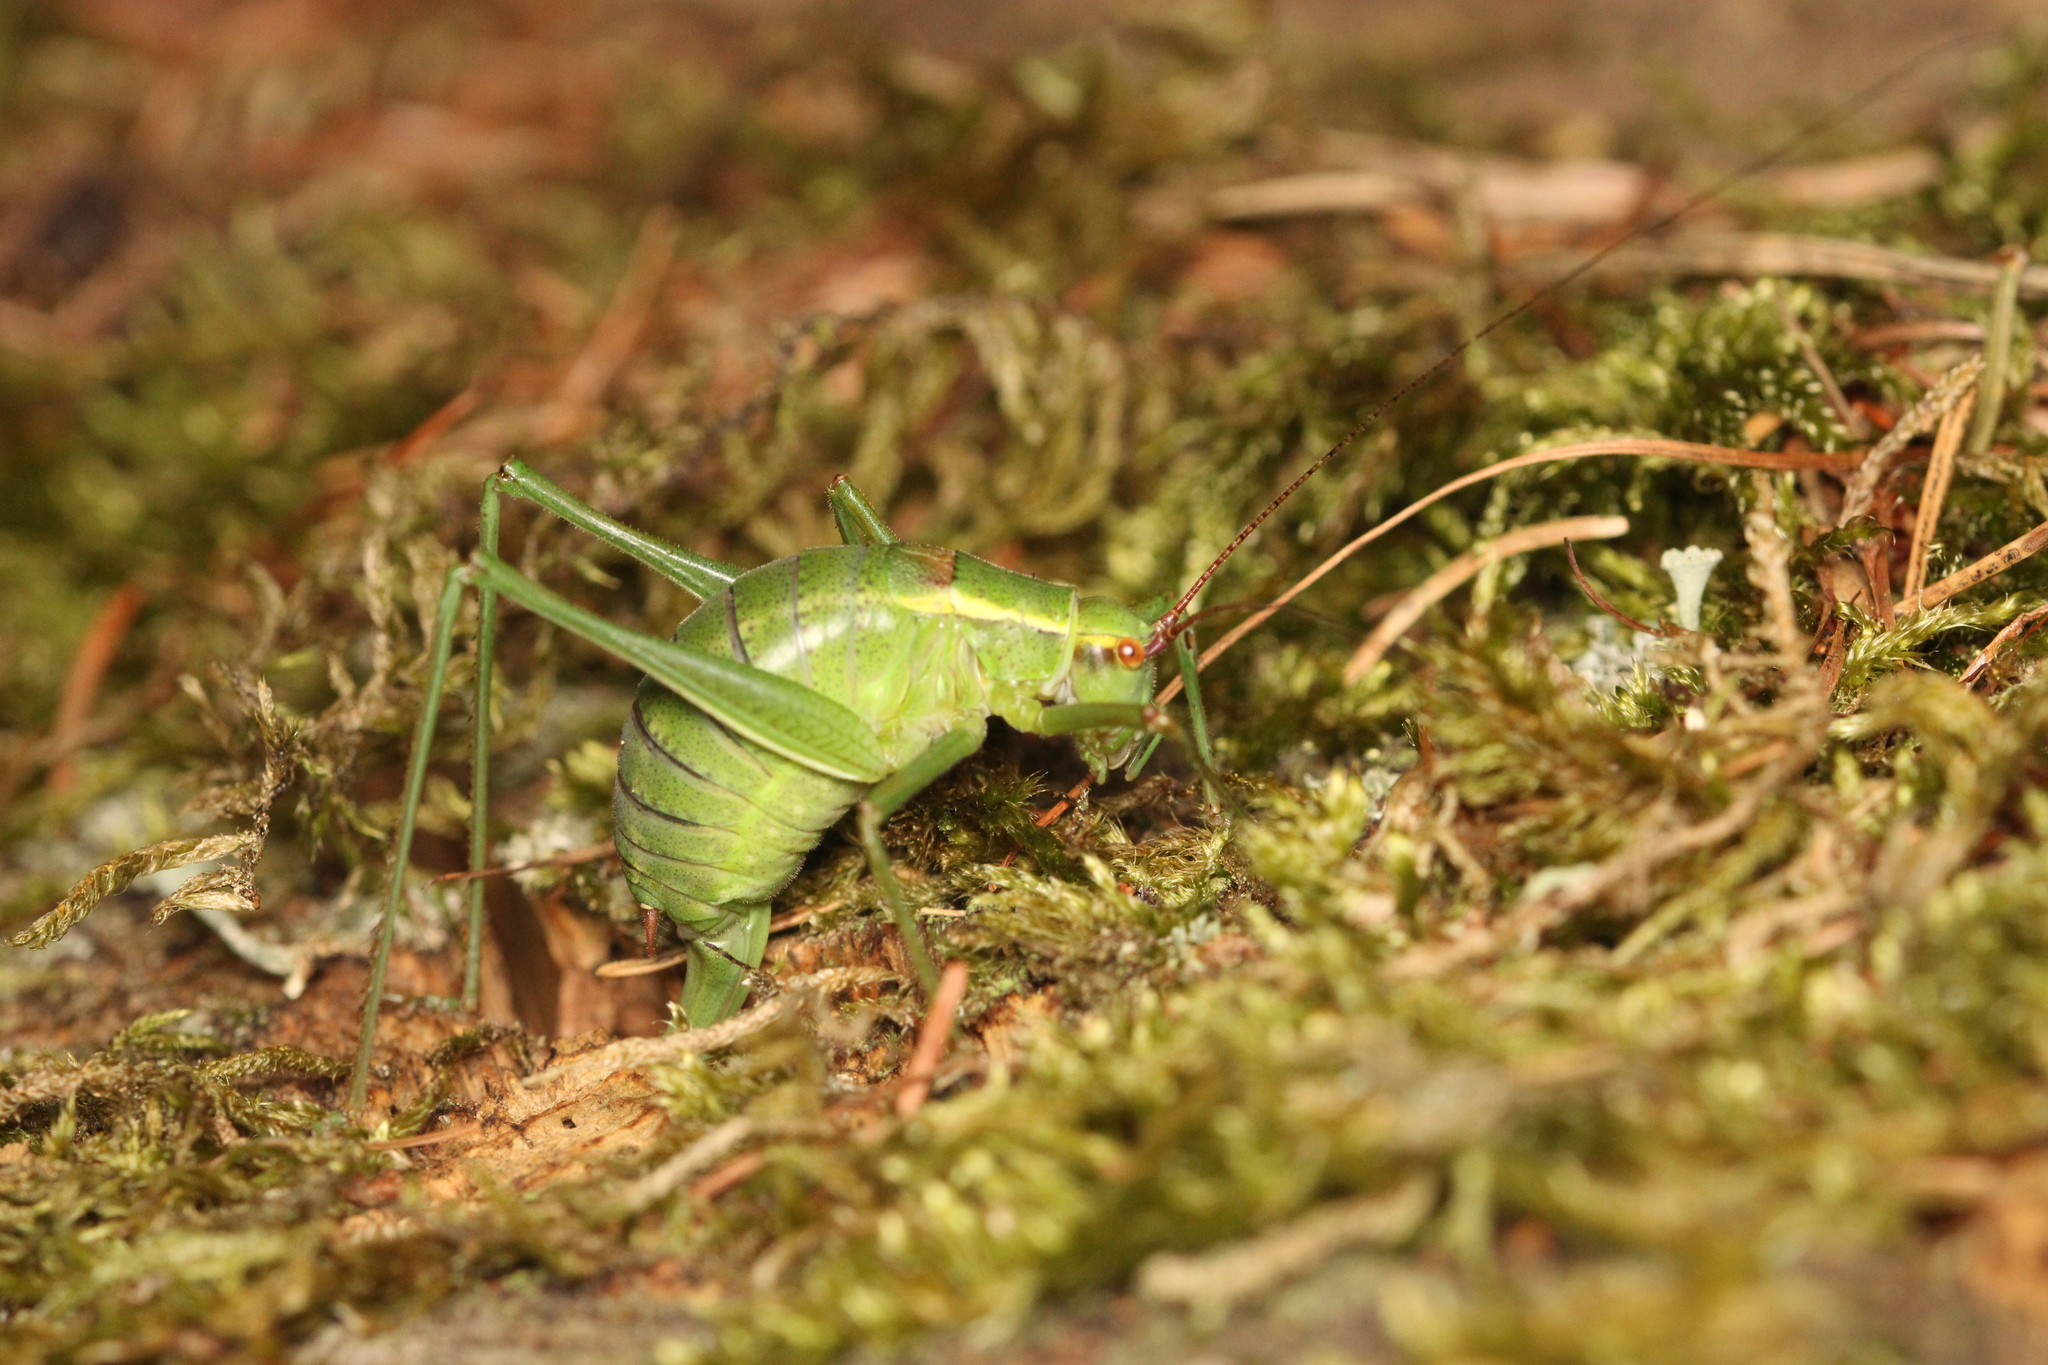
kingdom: Animalia
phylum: Arthropoda
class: Insecta
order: Orthoptera
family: Tettigoniidae
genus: Barbitistes
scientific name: Barbitistes serricauda
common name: Saw-tailed bush-cricket
